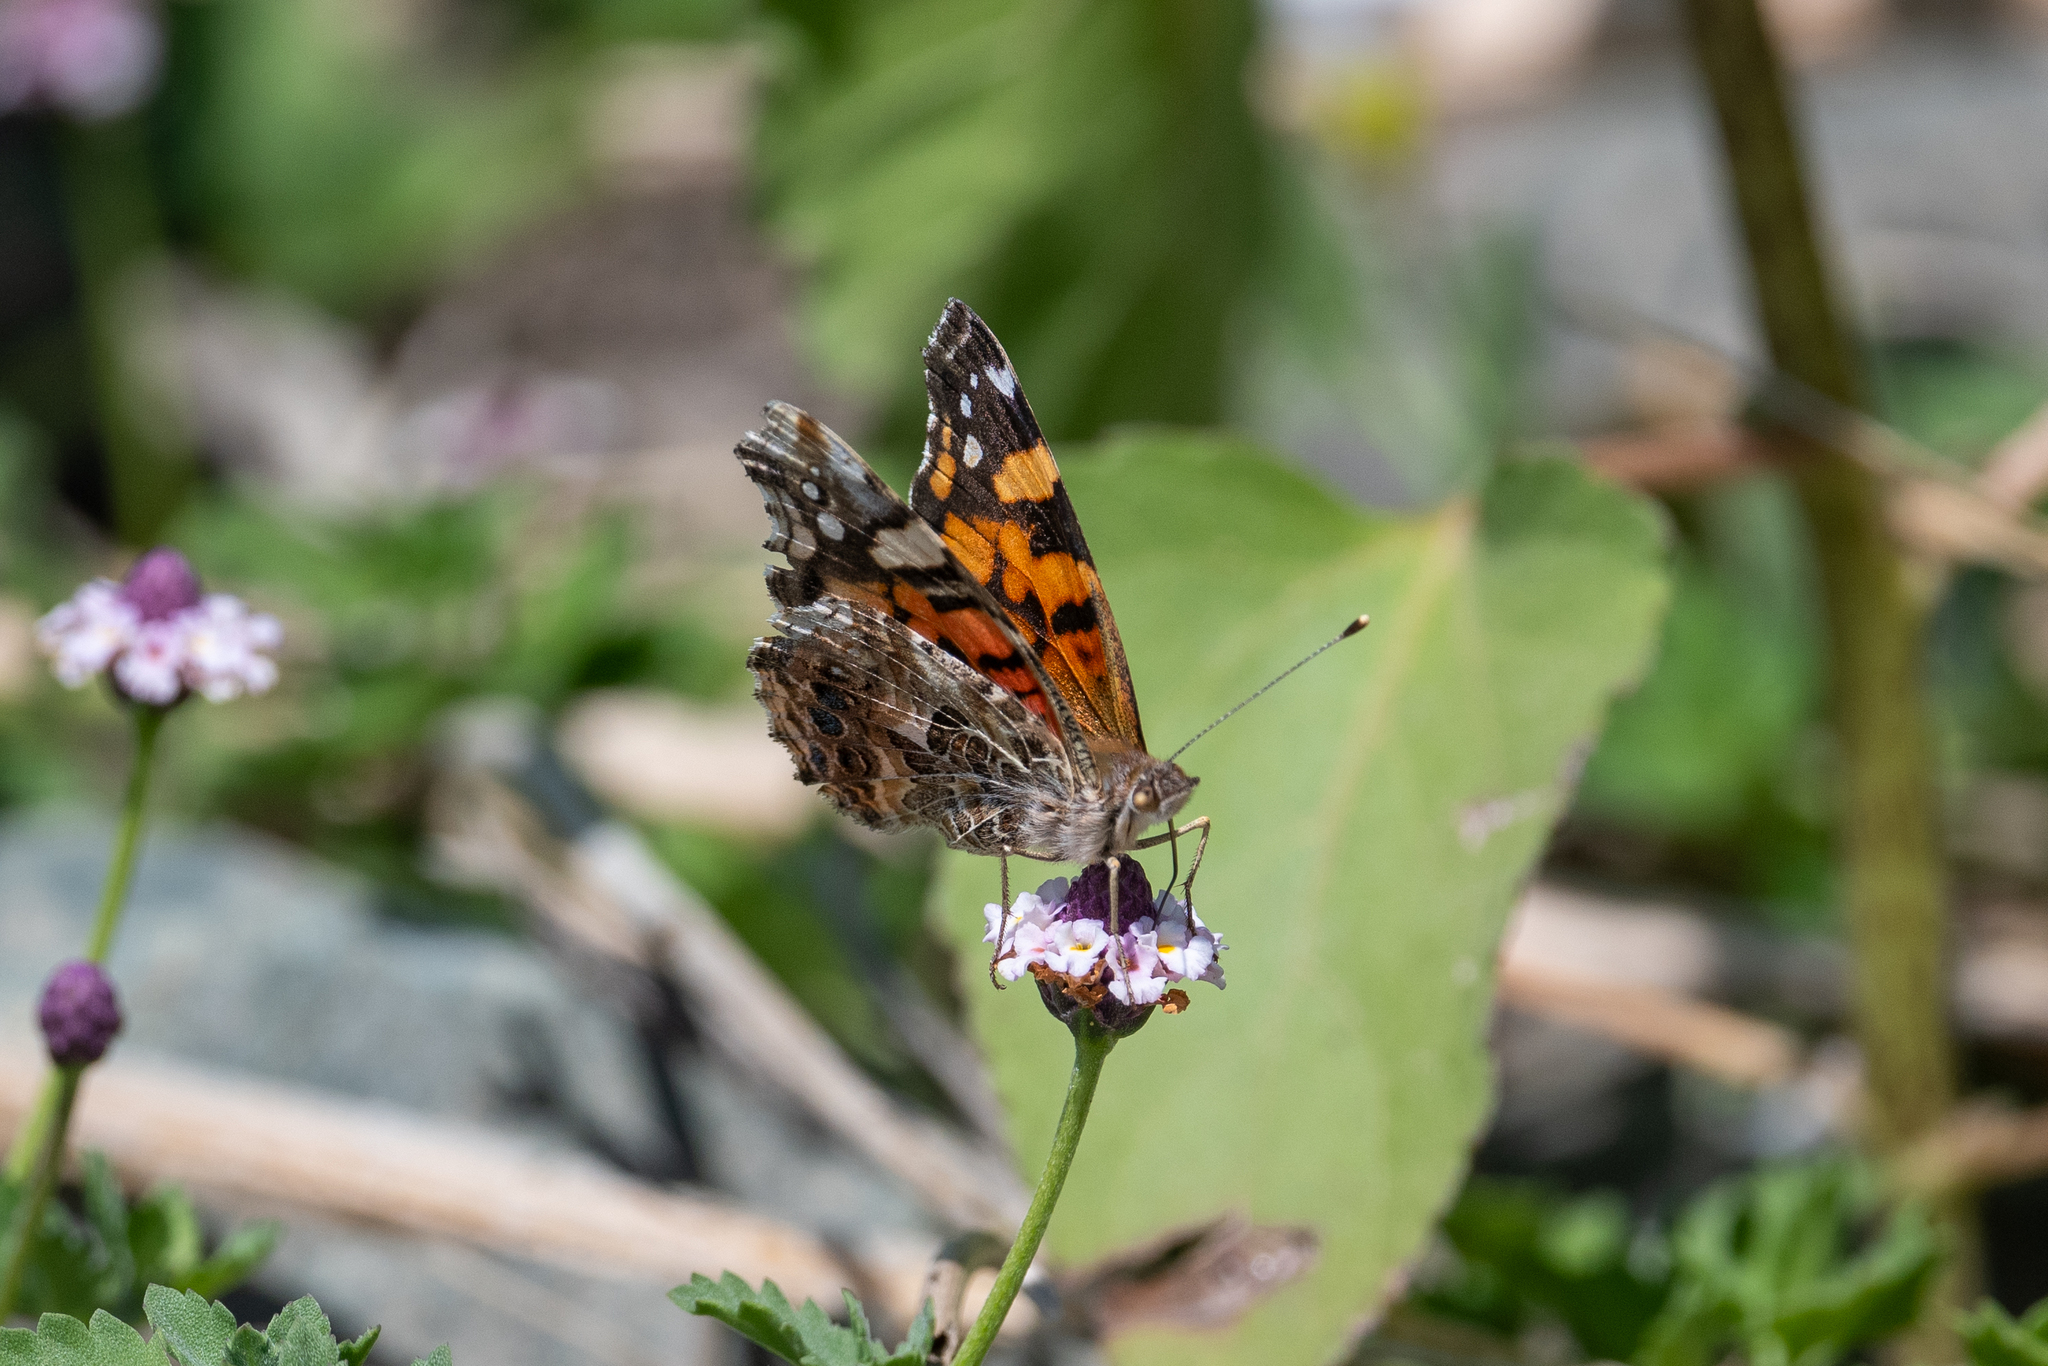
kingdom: Animalia
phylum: Arthropoda
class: Insecta
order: Lepidoptera
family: Nymphalidae
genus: Vanessa
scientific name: Vanessa annabella
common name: West coast lady
